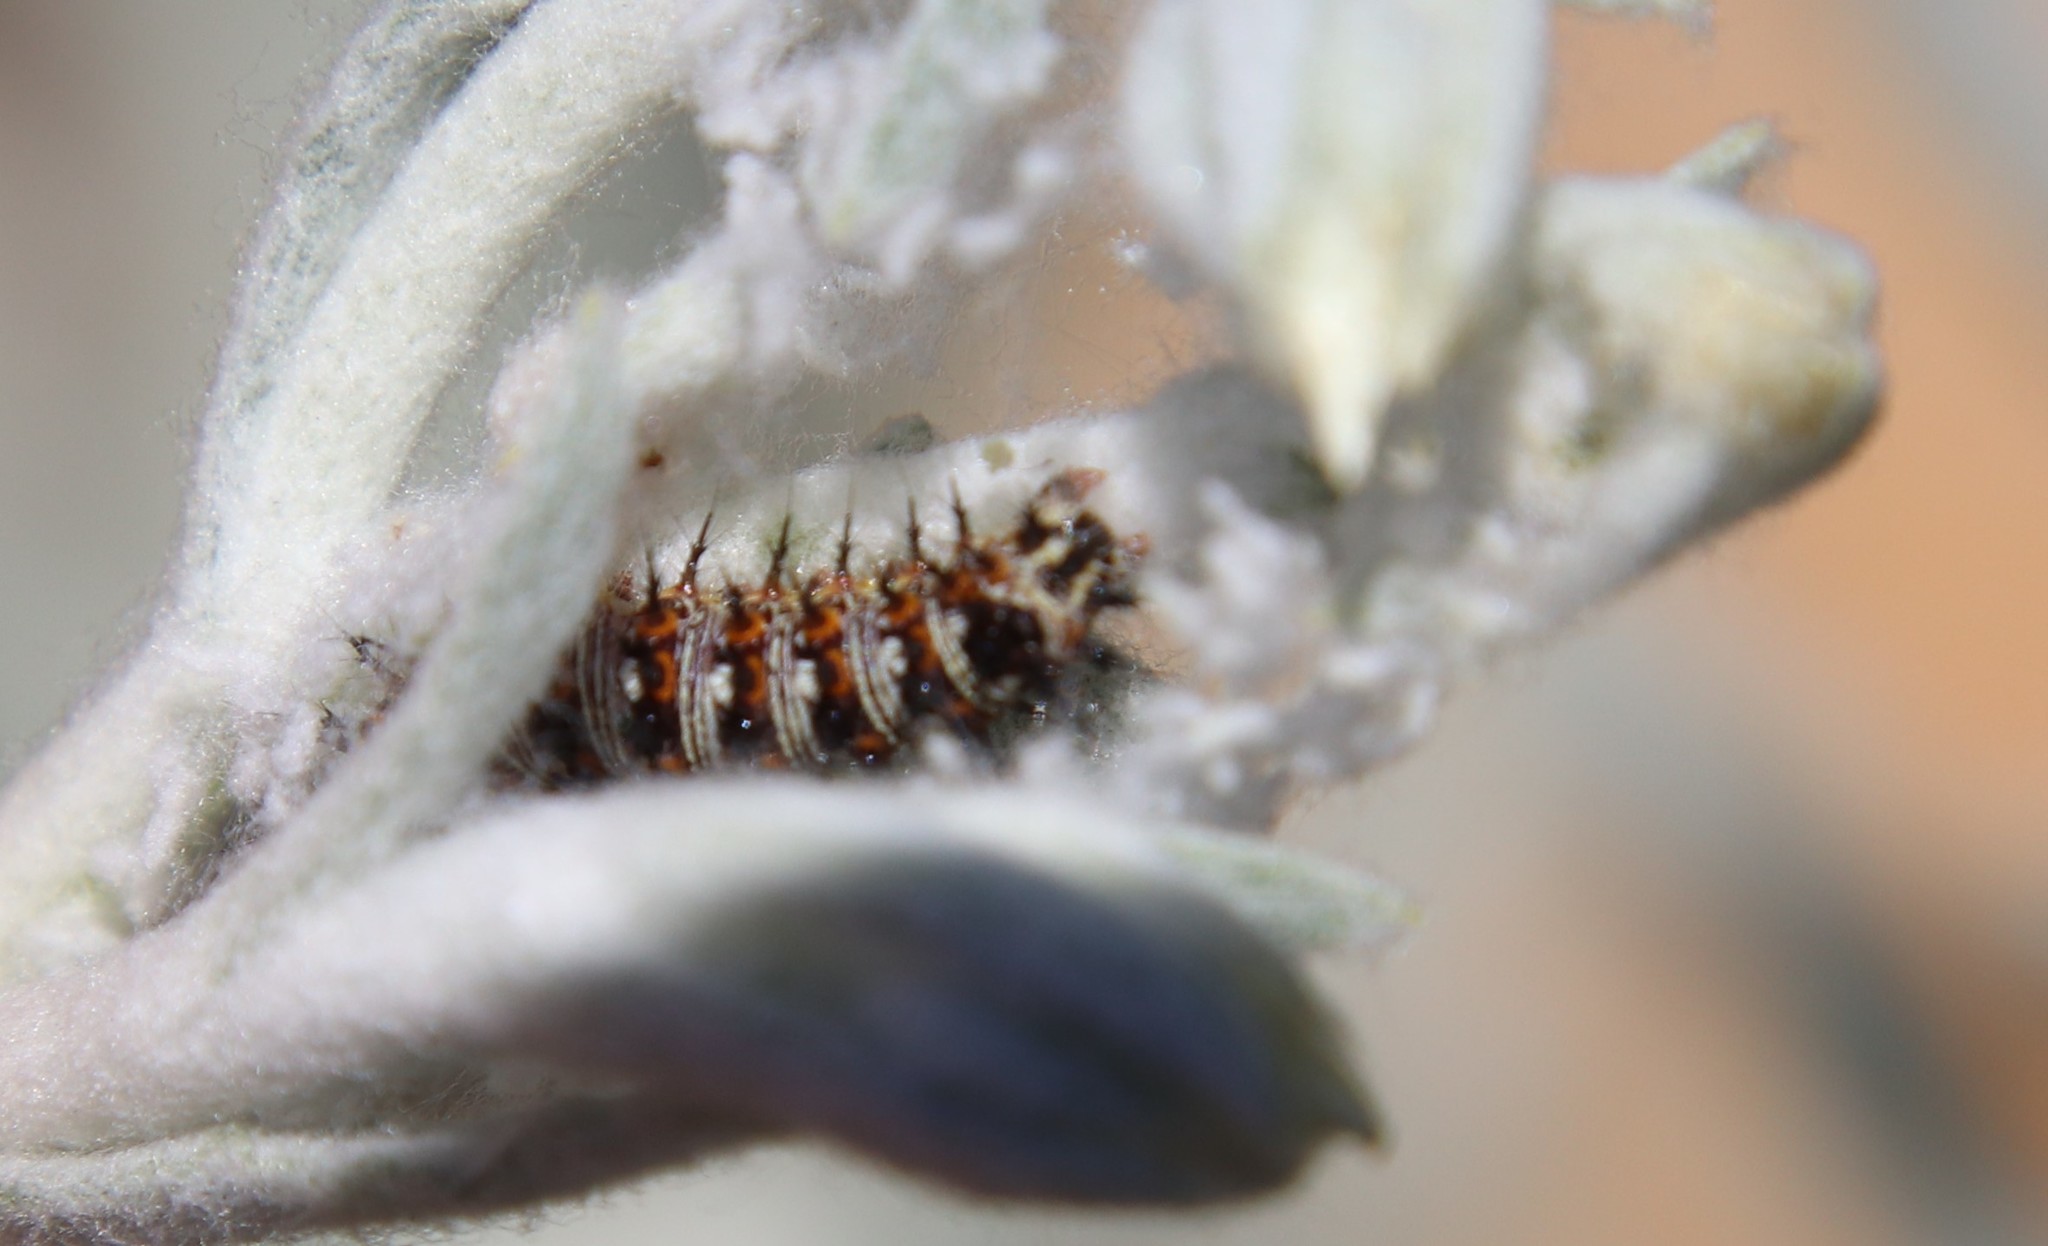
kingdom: Animalia
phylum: Arthropoda
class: Insecta
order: Lepidoptera
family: Nymphalidae
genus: Vanessa
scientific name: Vanessa virginiensis
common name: American lady
